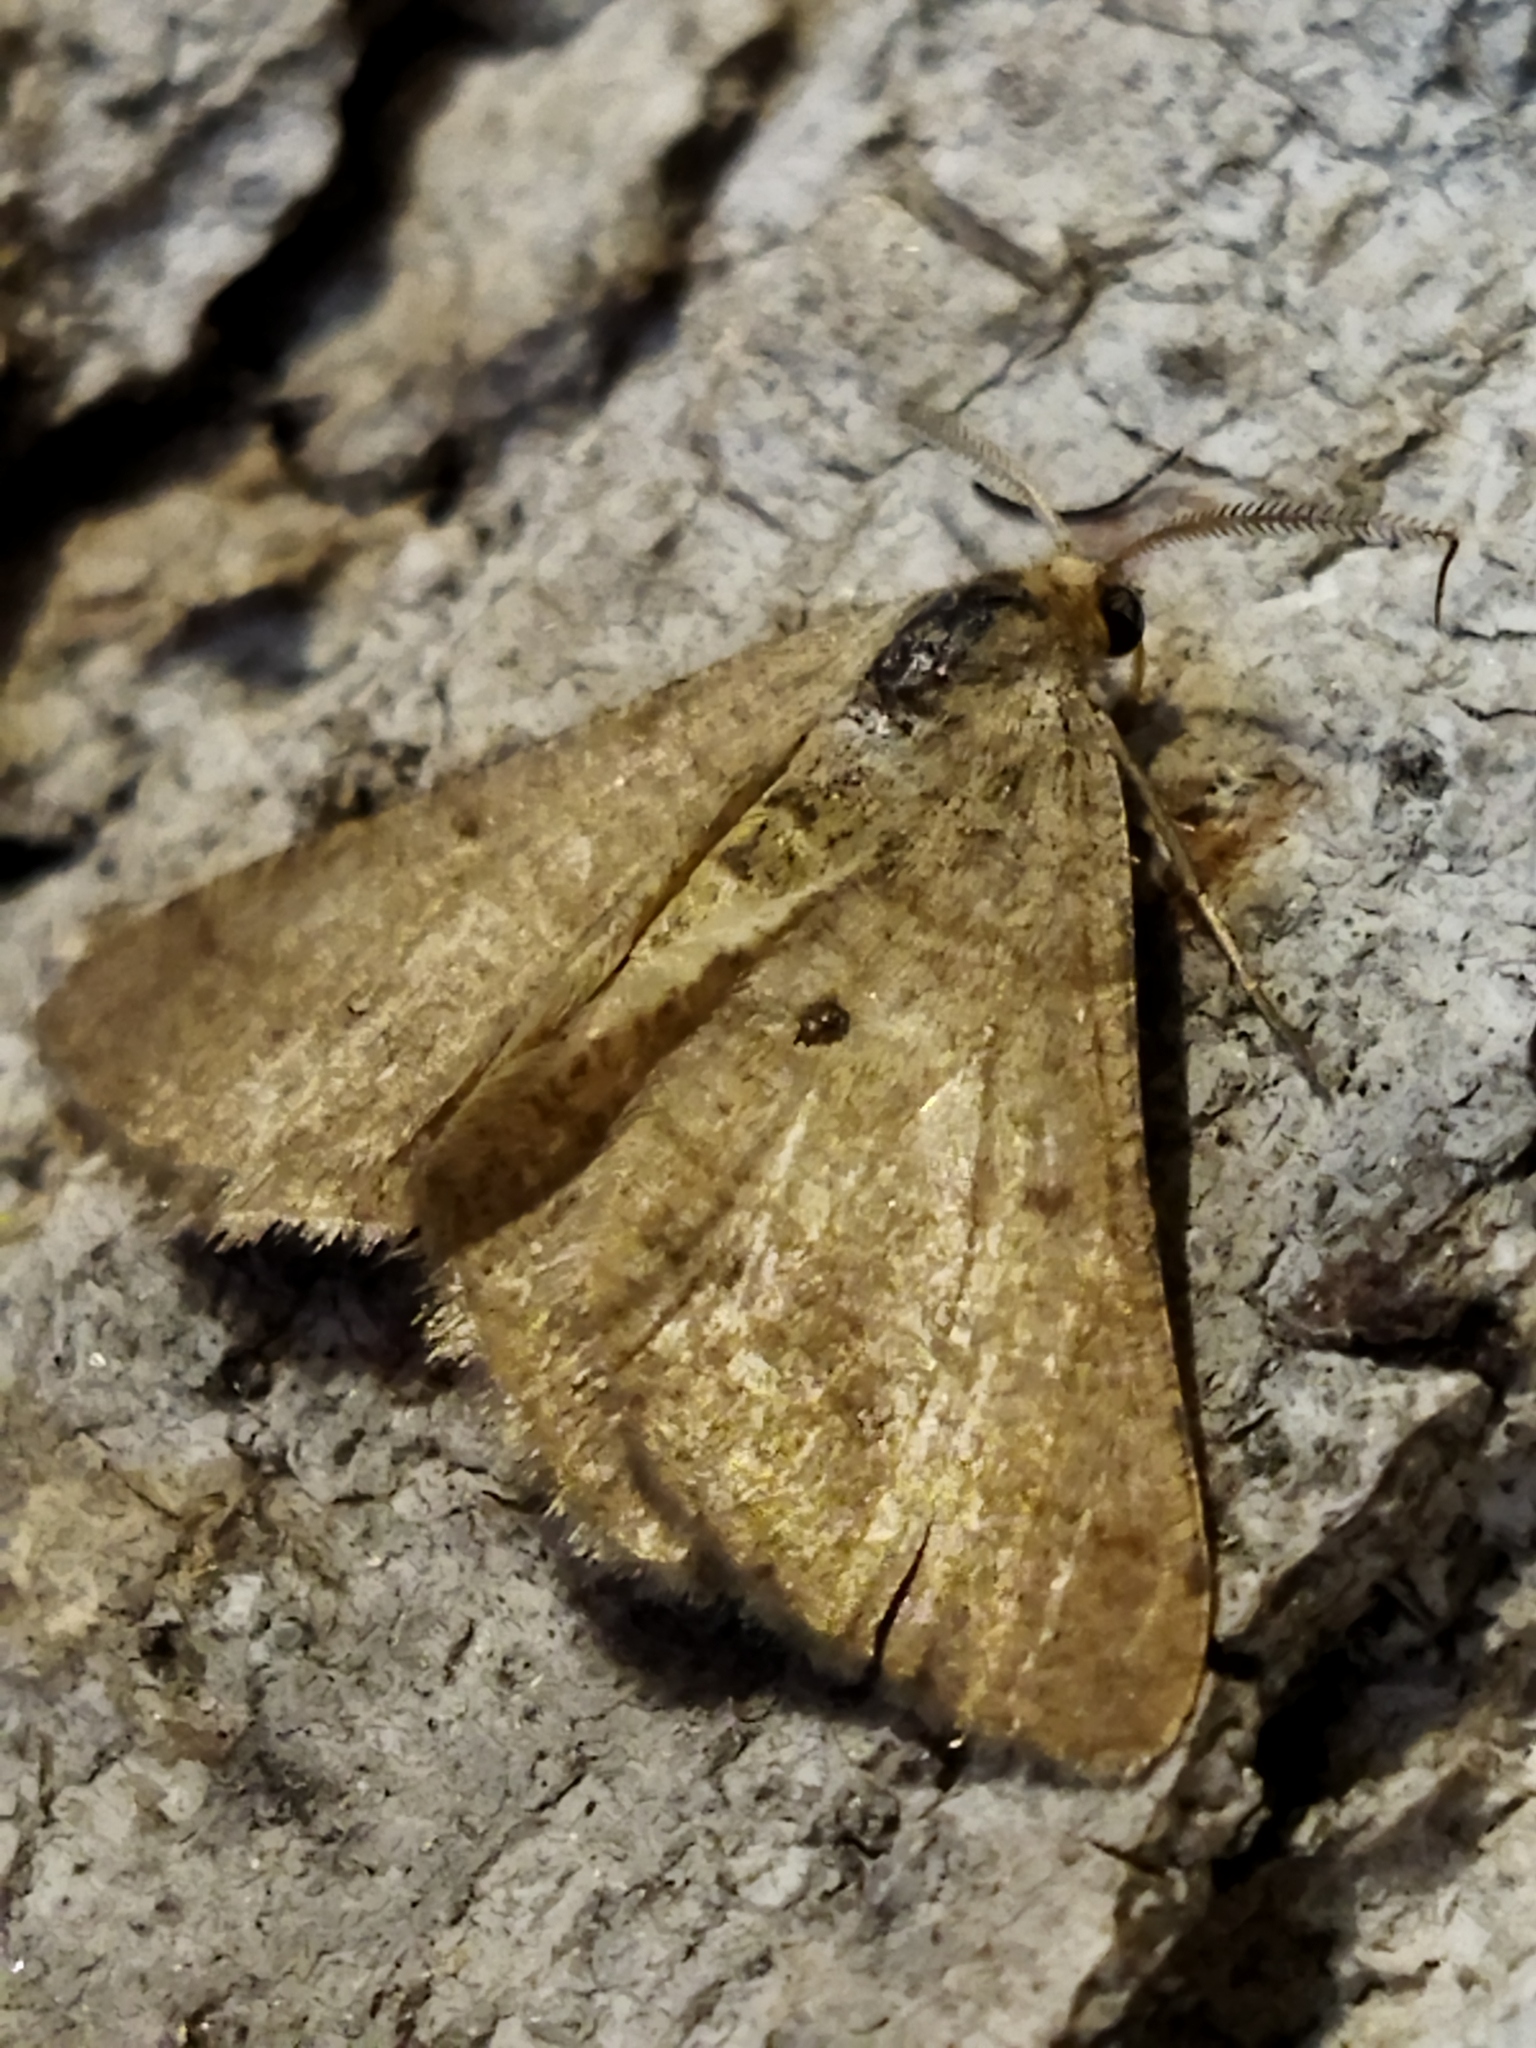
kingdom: Animalia
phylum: Arthropoda
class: Insecta
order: Lepidoptera
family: Geometridae
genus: Tephrina
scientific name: Tephrina murinaria
